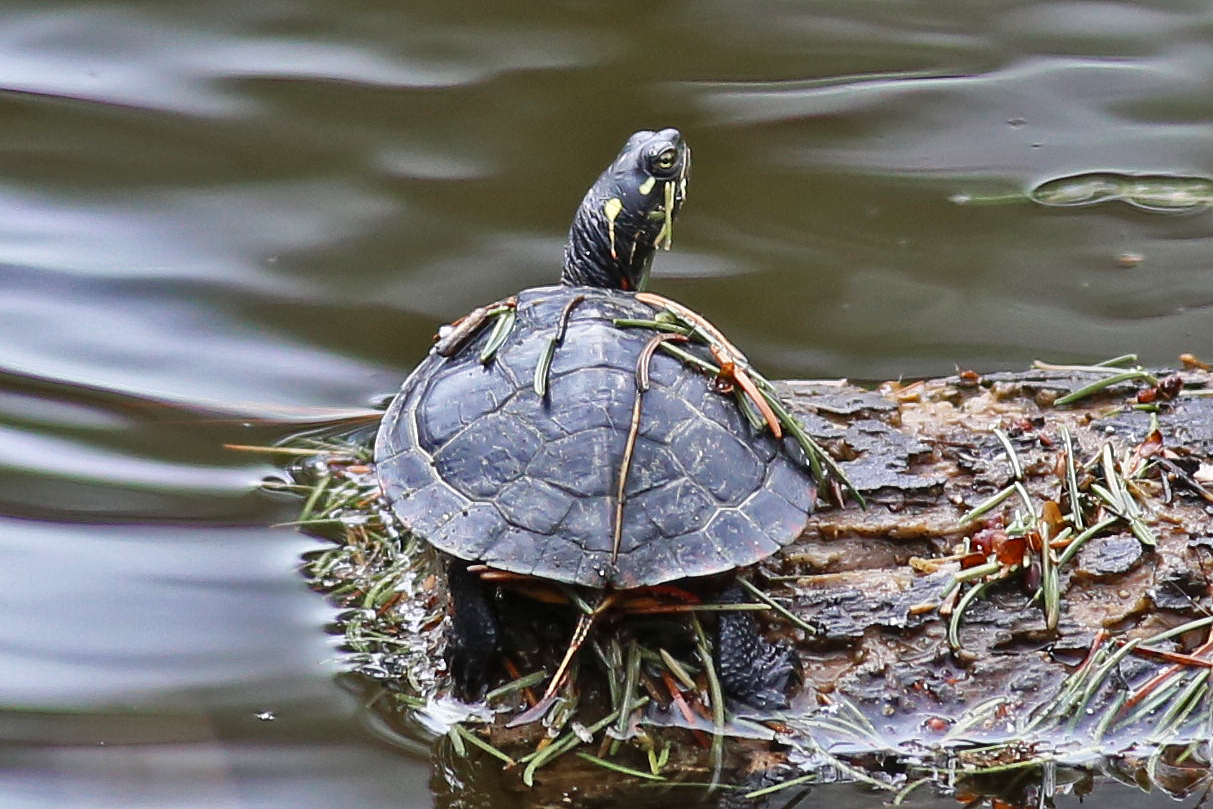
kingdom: Animalia
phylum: Chordata
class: Testudines
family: Emydidae
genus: Chrysemys
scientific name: Chrysemys picta
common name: Painted turtle
